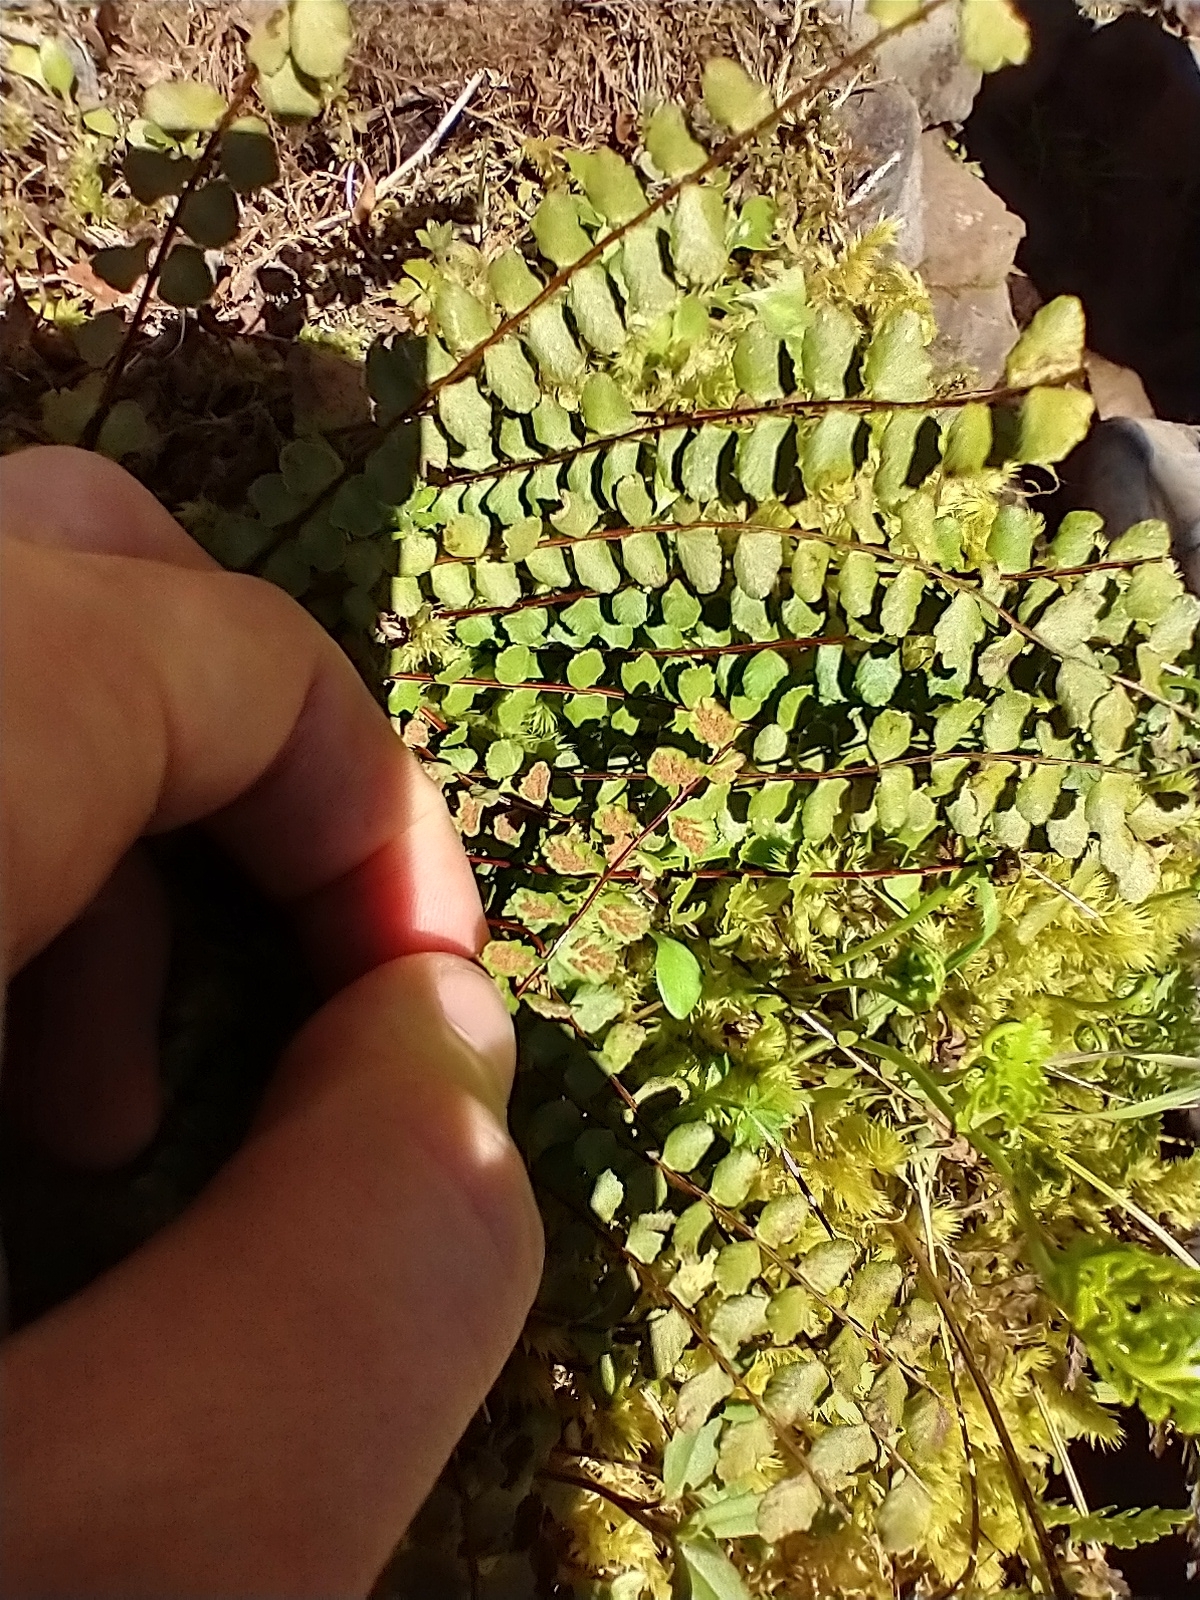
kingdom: Plantae
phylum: Tracheophyta
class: Polypodiopsida
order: Polypodiales
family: Aspleniaceae
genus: Asplenium
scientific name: Asplenium trichomanes
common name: Maidenhair spleenwort
